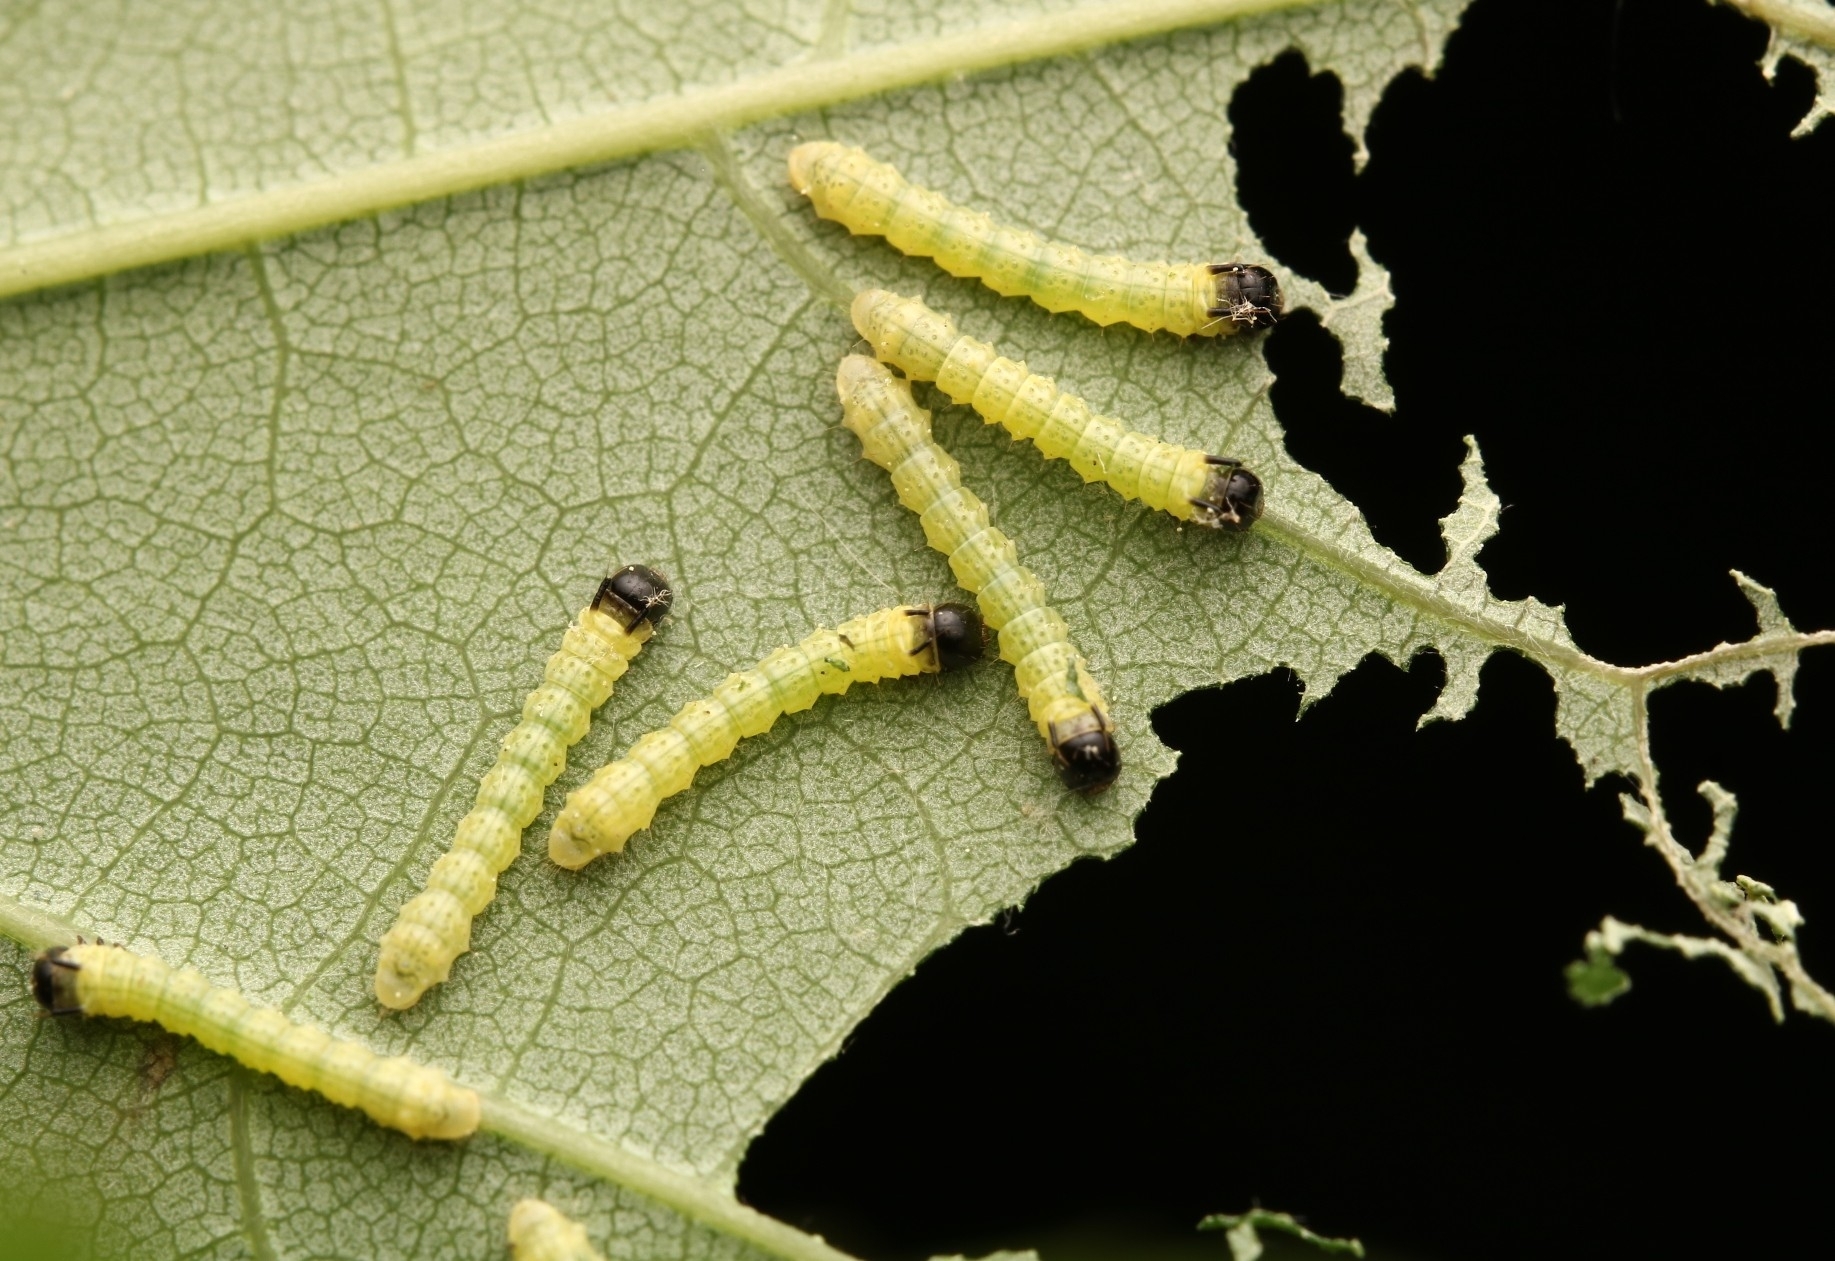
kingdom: Animalia
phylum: Arthropoda
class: Insecta
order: Lepidoptera
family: Saturniidae
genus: Dryocampa
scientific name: Dryocampa rubicunda
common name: Rosy maple moth
